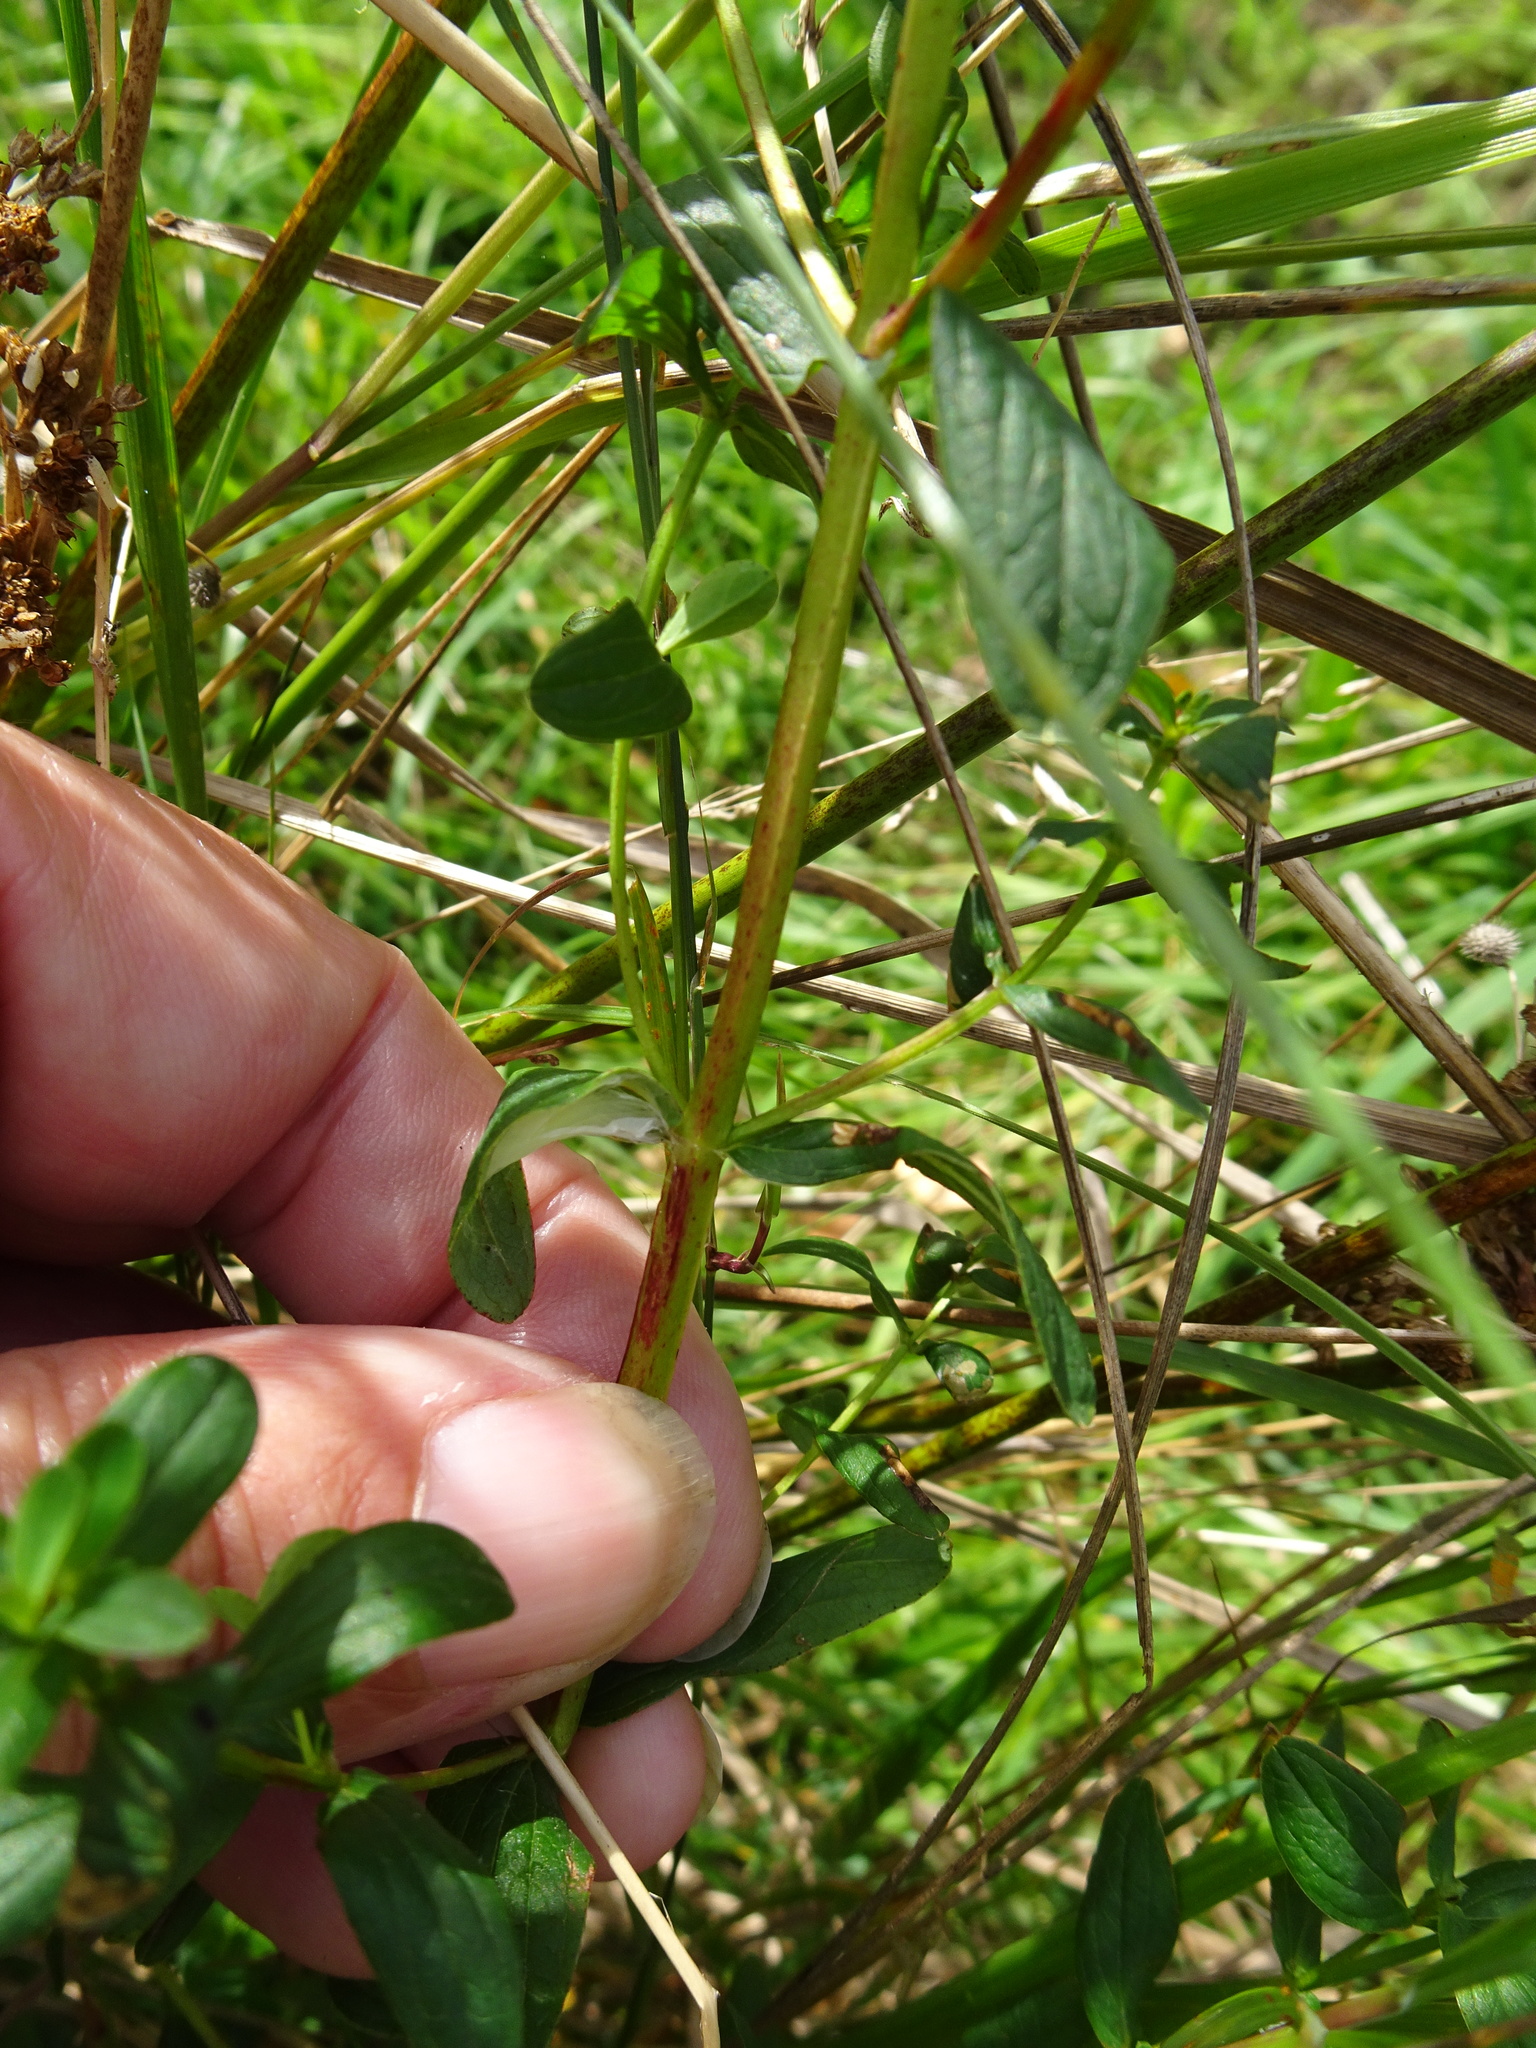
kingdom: Plantae
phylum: Tracheophyta
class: Magnoliopsida
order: Malpighiales
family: Hypericaceae
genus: Hypericum
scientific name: Hypericum dubium
